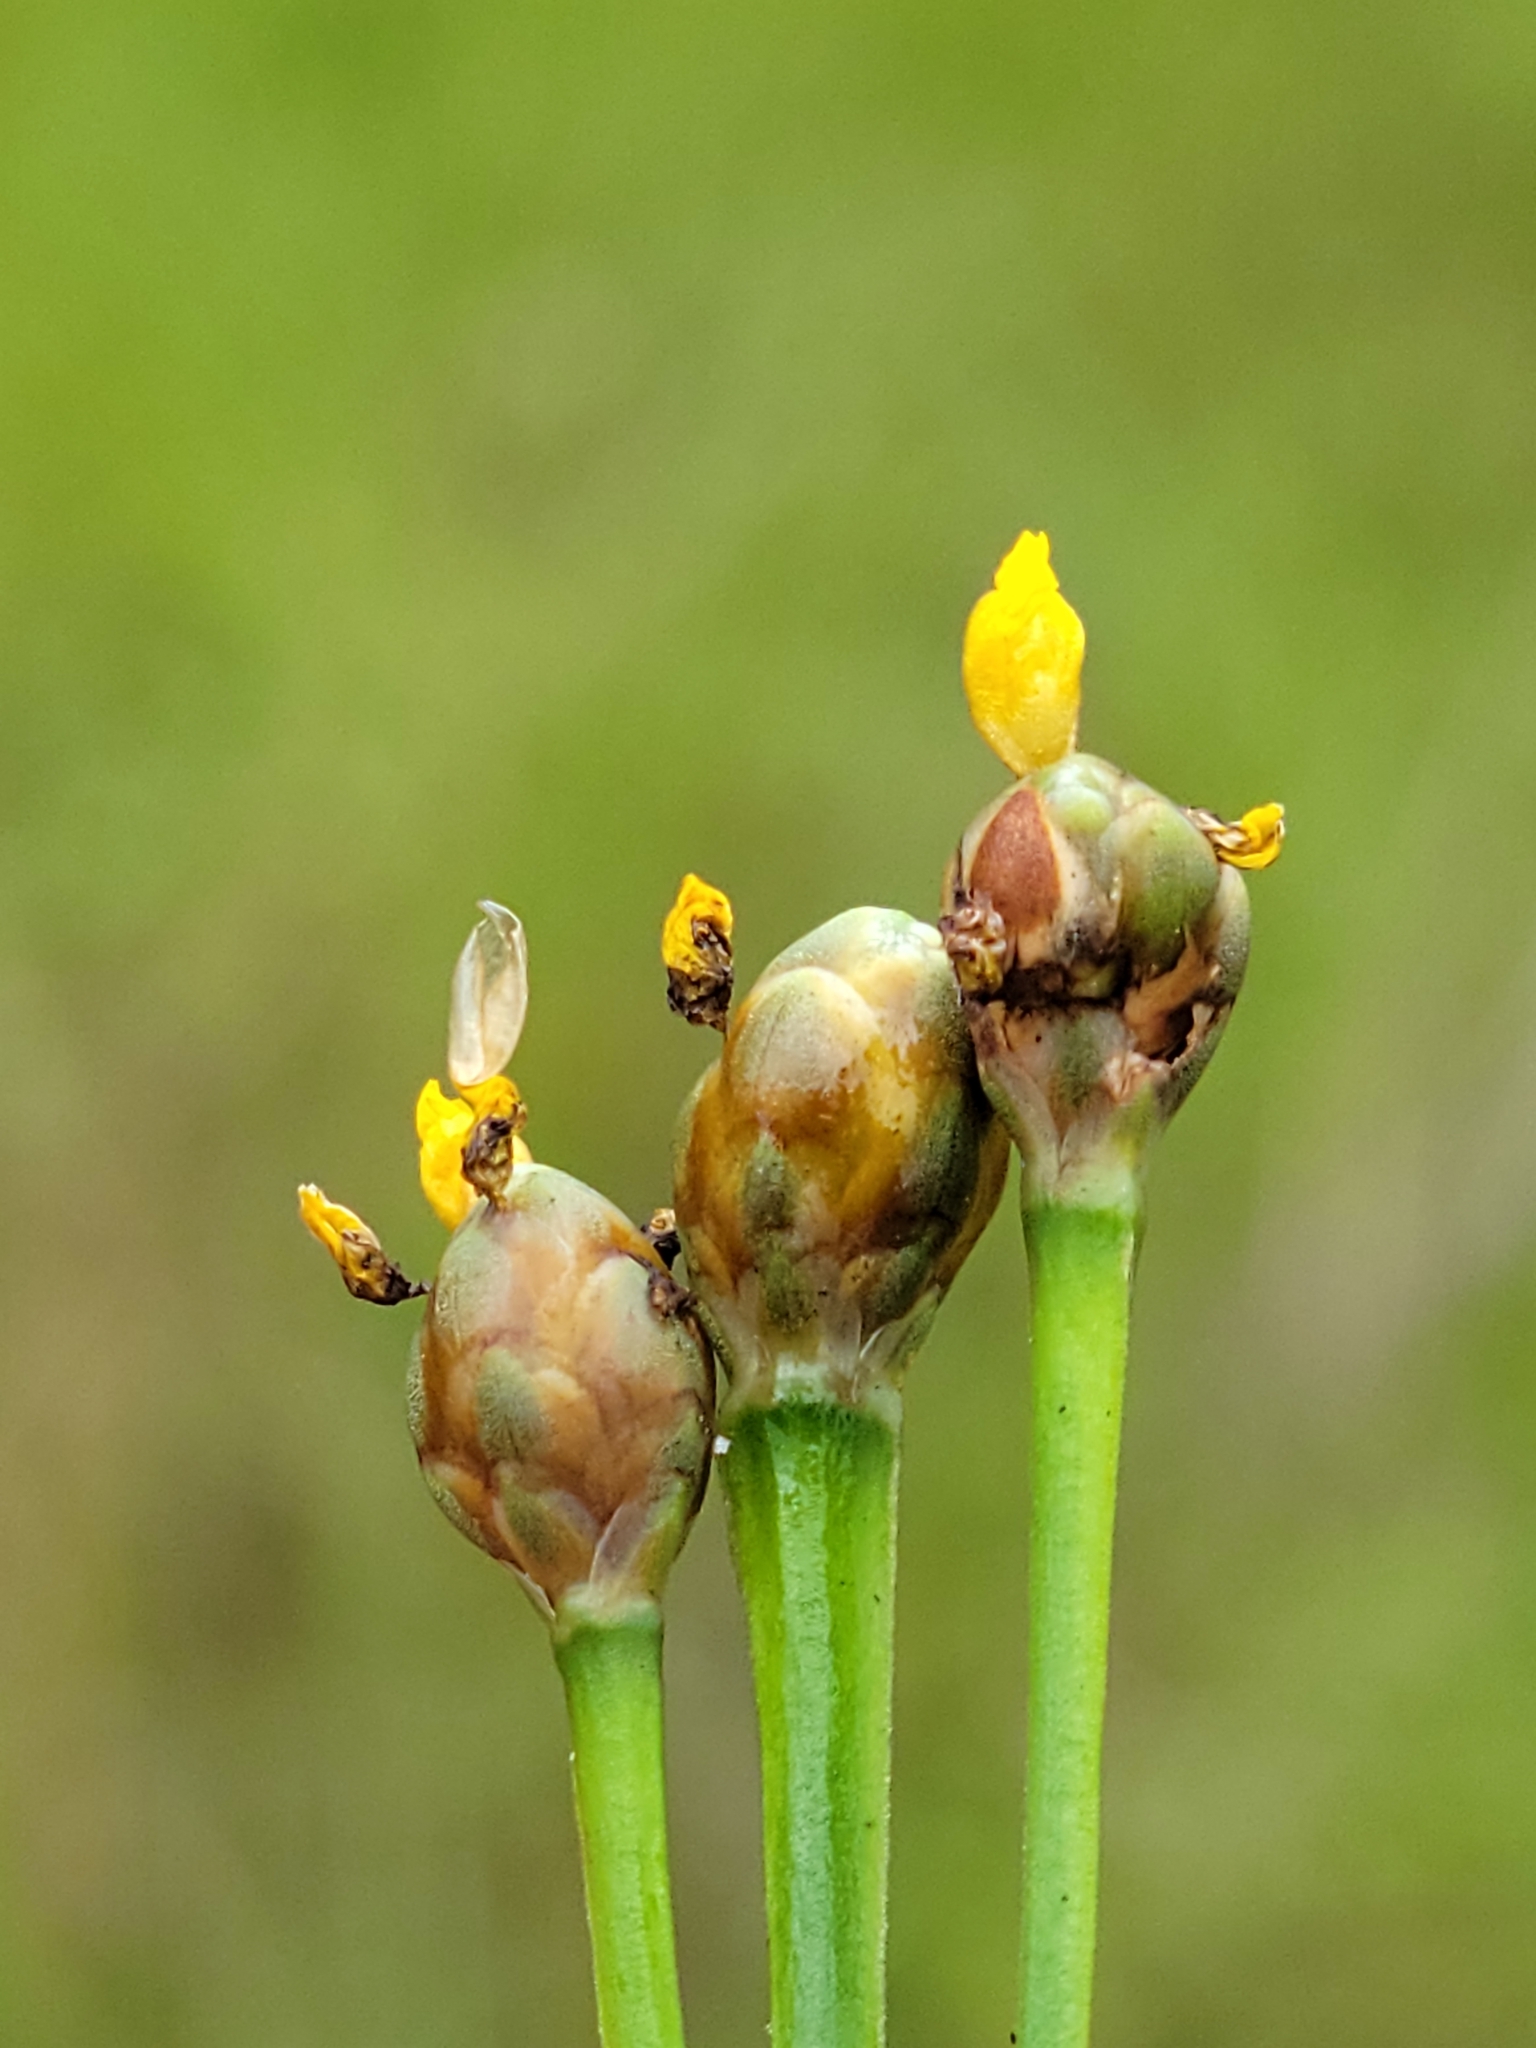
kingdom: Plantae
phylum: Tracheophyta
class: Liliopsida
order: Poales
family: Xyridaceae
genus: Xyris
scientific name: Xyris jupicai
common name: Richard's yelloweyed grass
